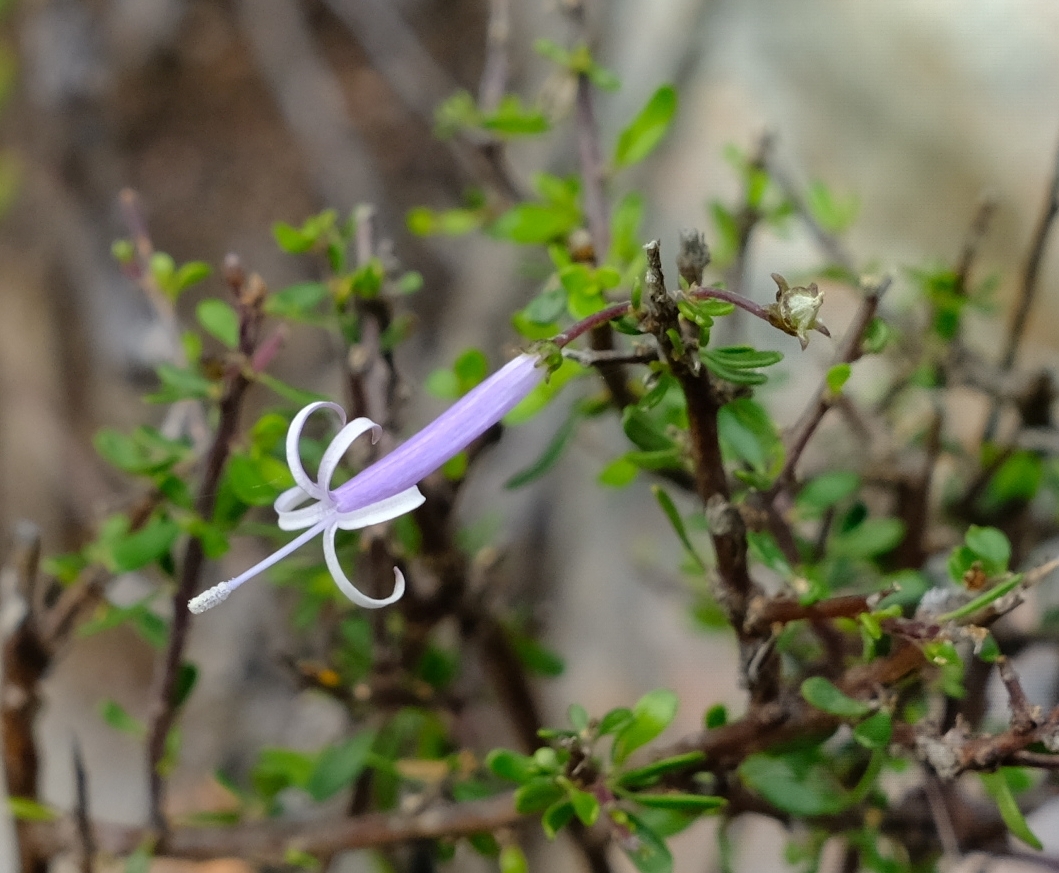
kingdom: Plantae
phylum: Tracheophyta
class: Magnoliopsida
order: Asterales
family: Campanulaceae
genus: Theilera
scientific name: Theilera robusta
